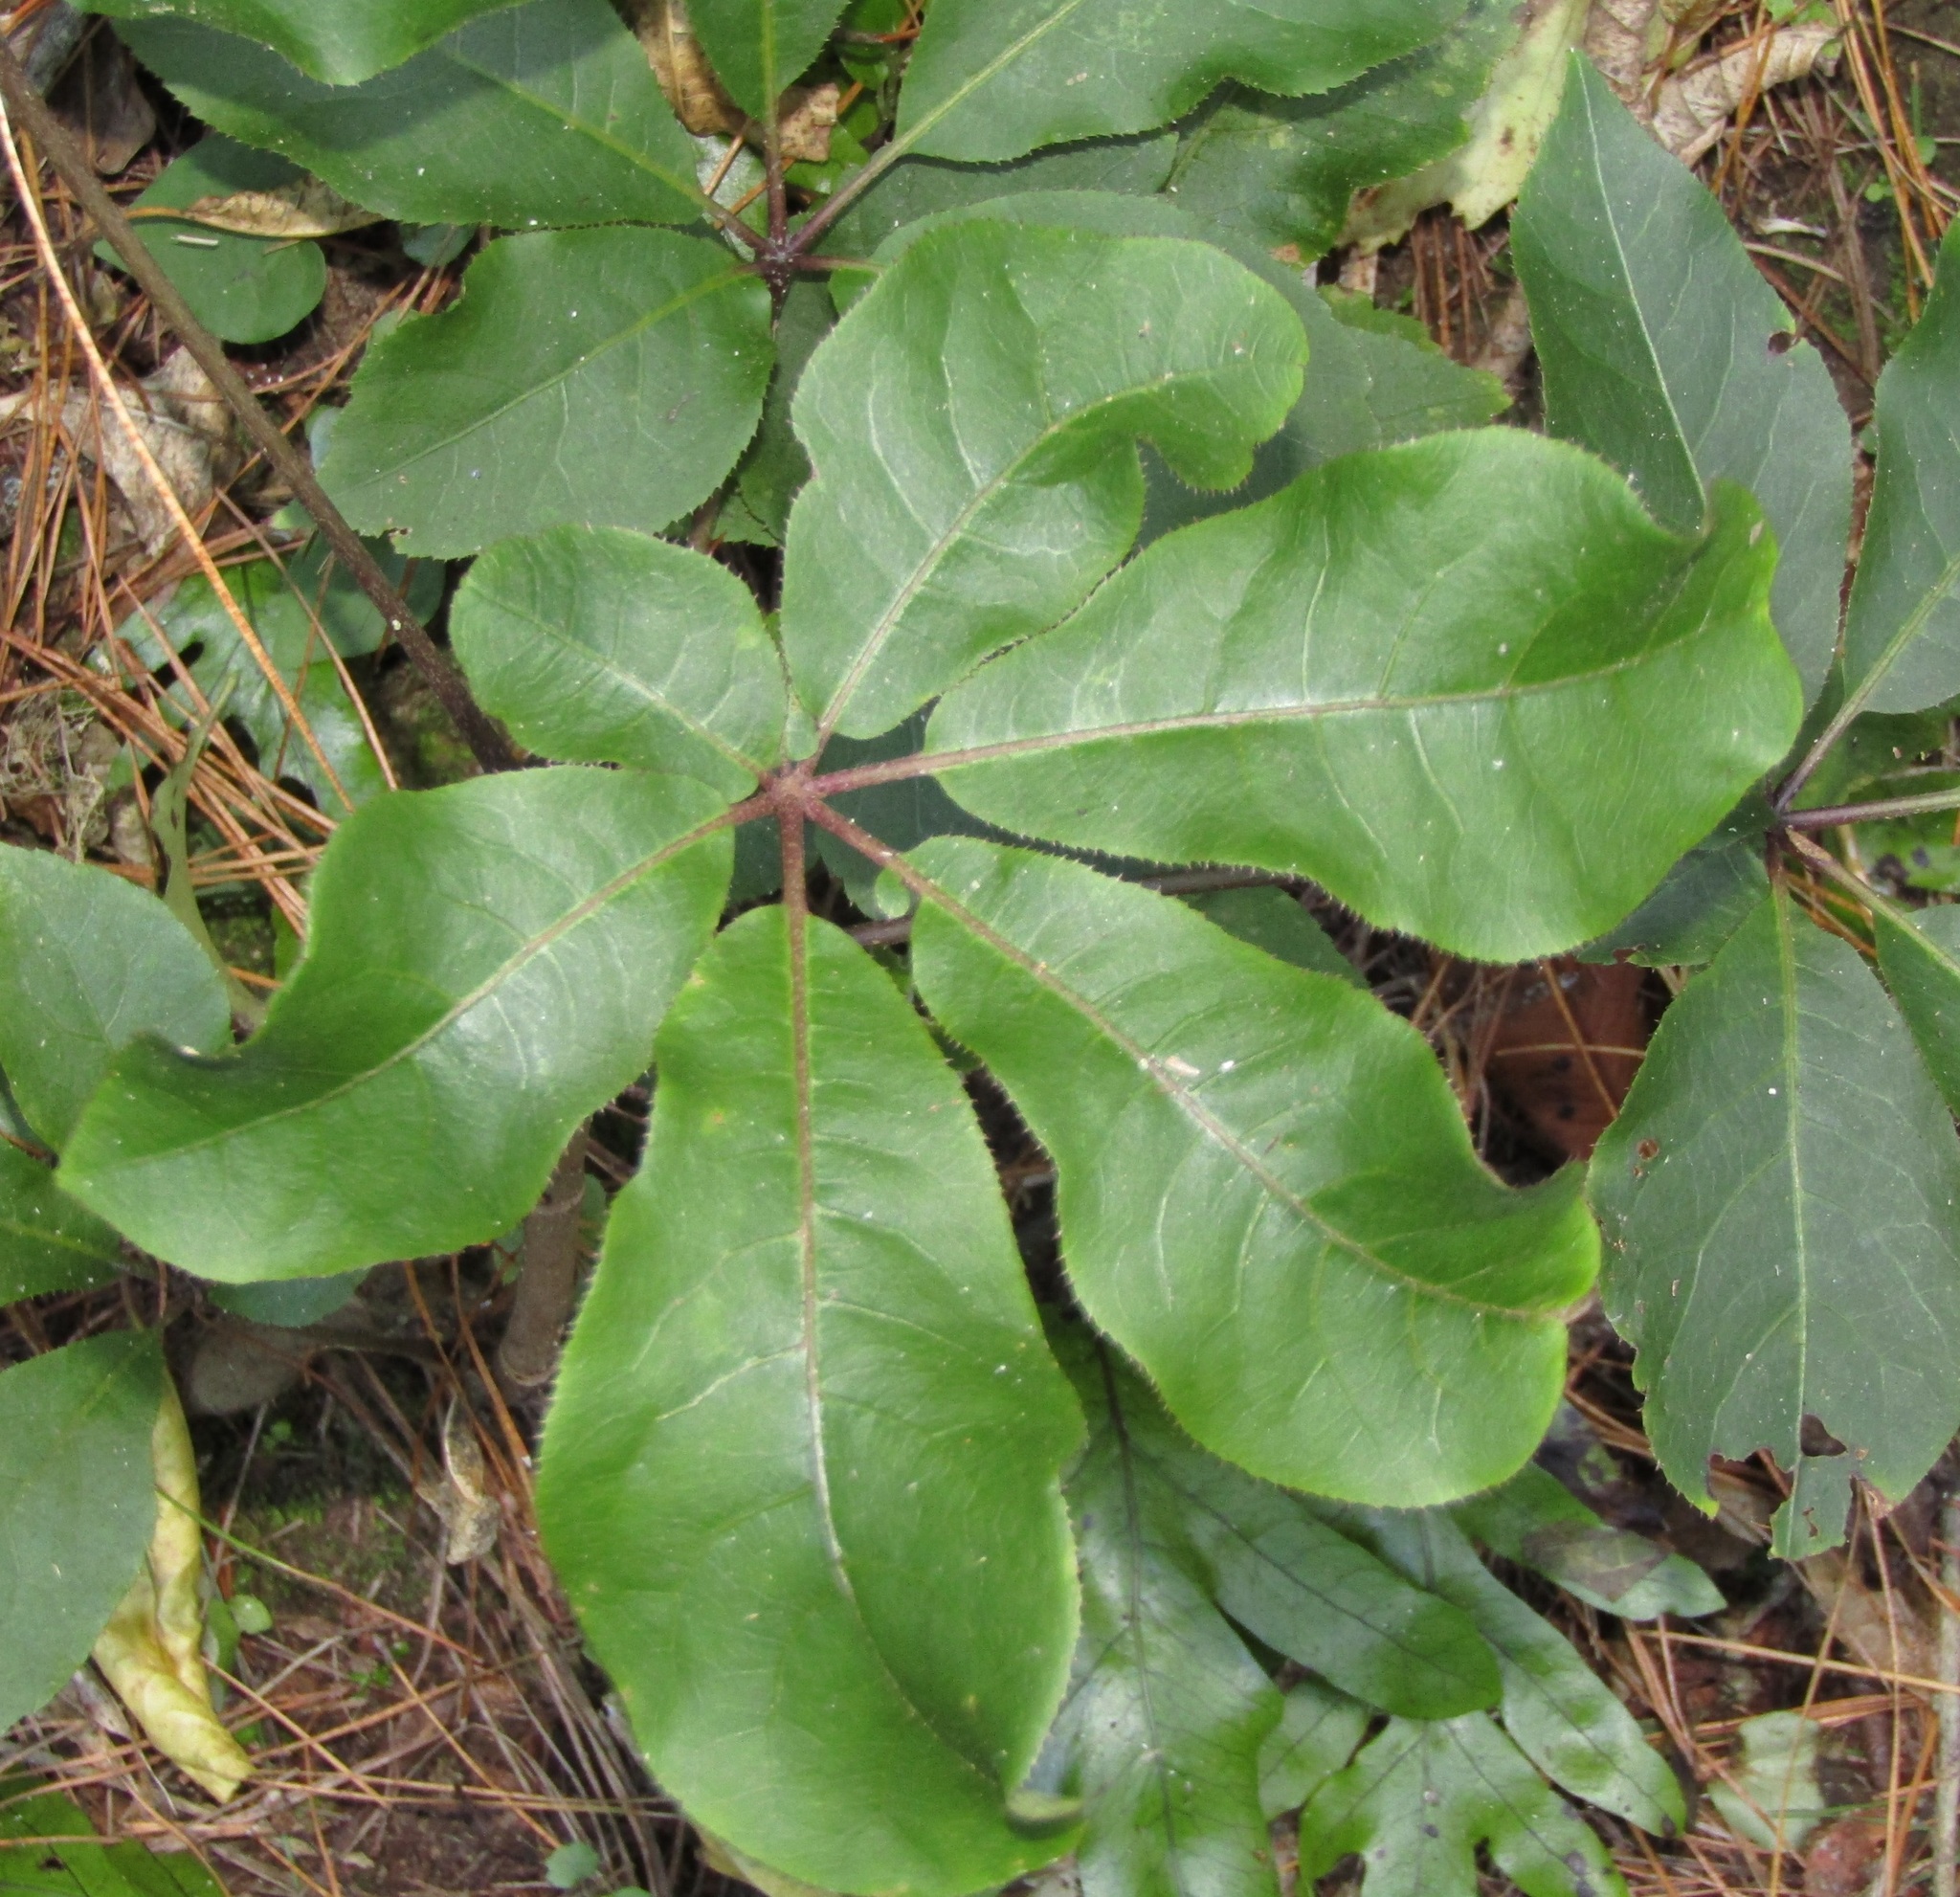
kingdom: Plantae
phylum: Tracheophyta
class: Magnoliopsida
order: Apiales
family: Araliaceae
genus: Schefflera
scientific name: Schefflera digitata
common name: Pate
